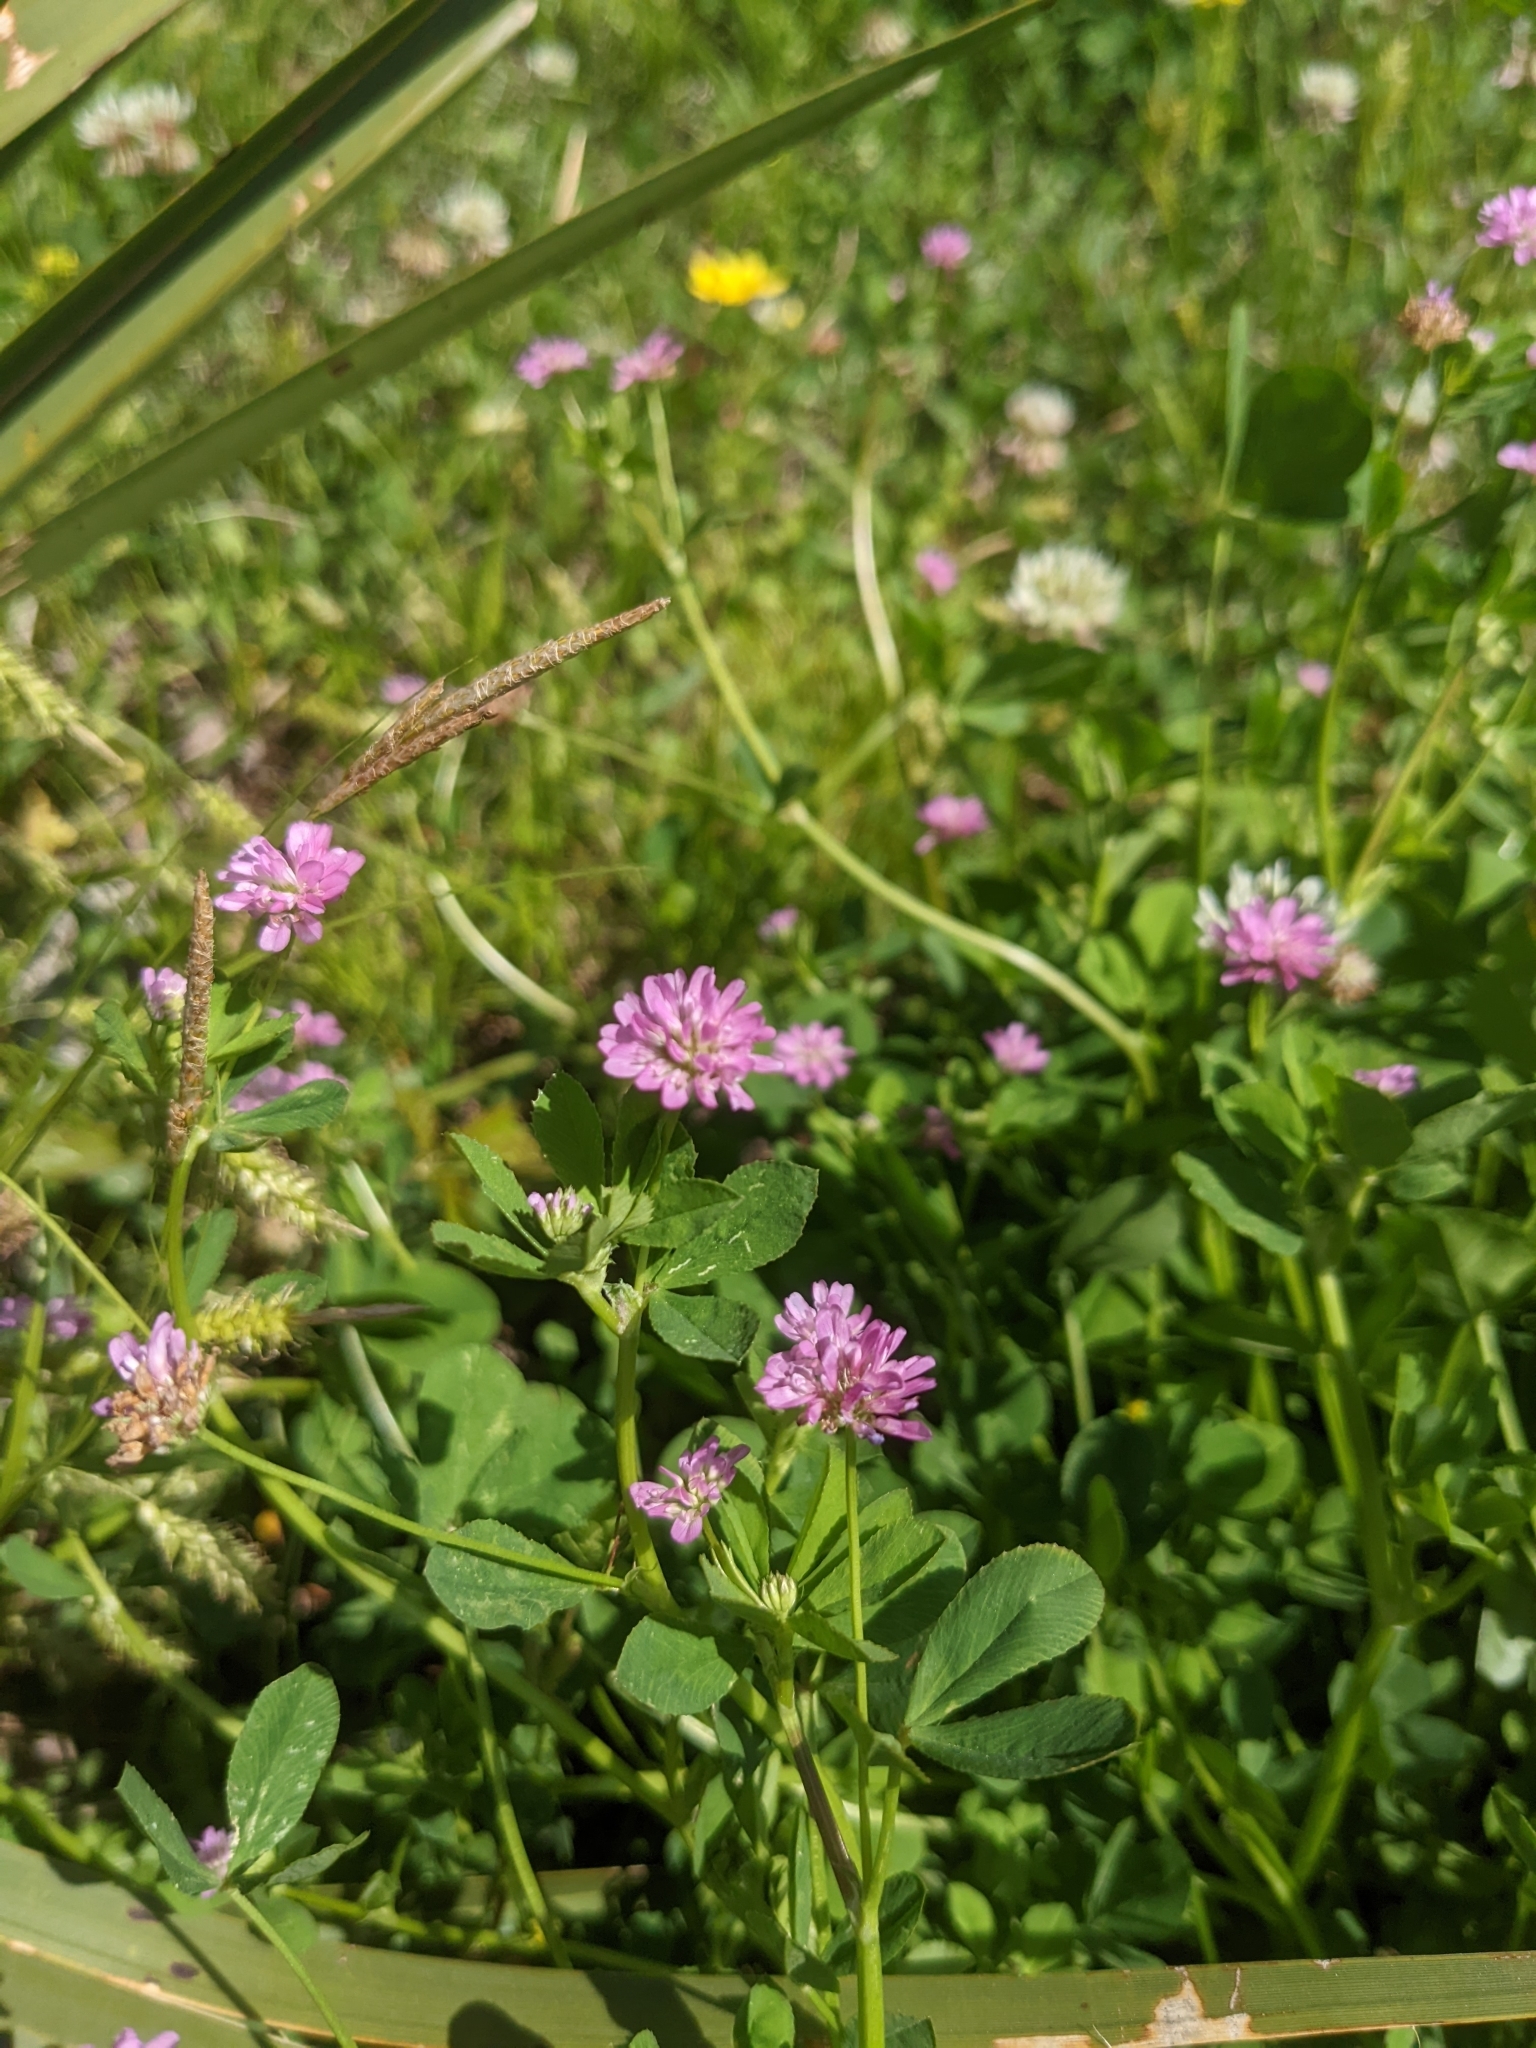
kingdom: Plantae
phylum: Tracheophyta
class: Magnoliopsida
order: Fabales
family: Fabaceae
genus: Trifolium
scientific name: Trifolium resupinatum
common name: Reversed clover
